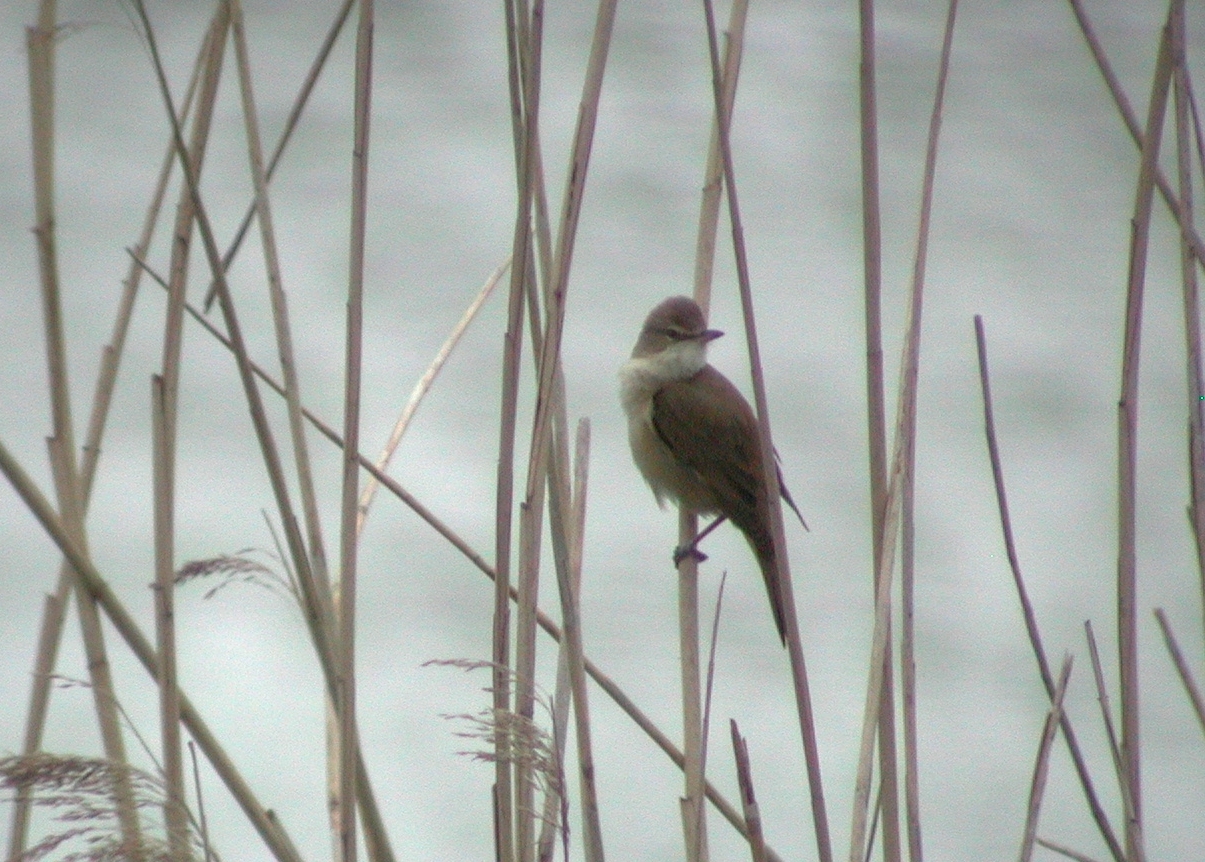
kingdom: Animalia
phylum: Chordata
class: Aves
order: Passeriformes
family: Acrocephalidae
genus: Acrocephalus
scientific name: Acrocephalus arundinaceus
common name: Great reed warbler
